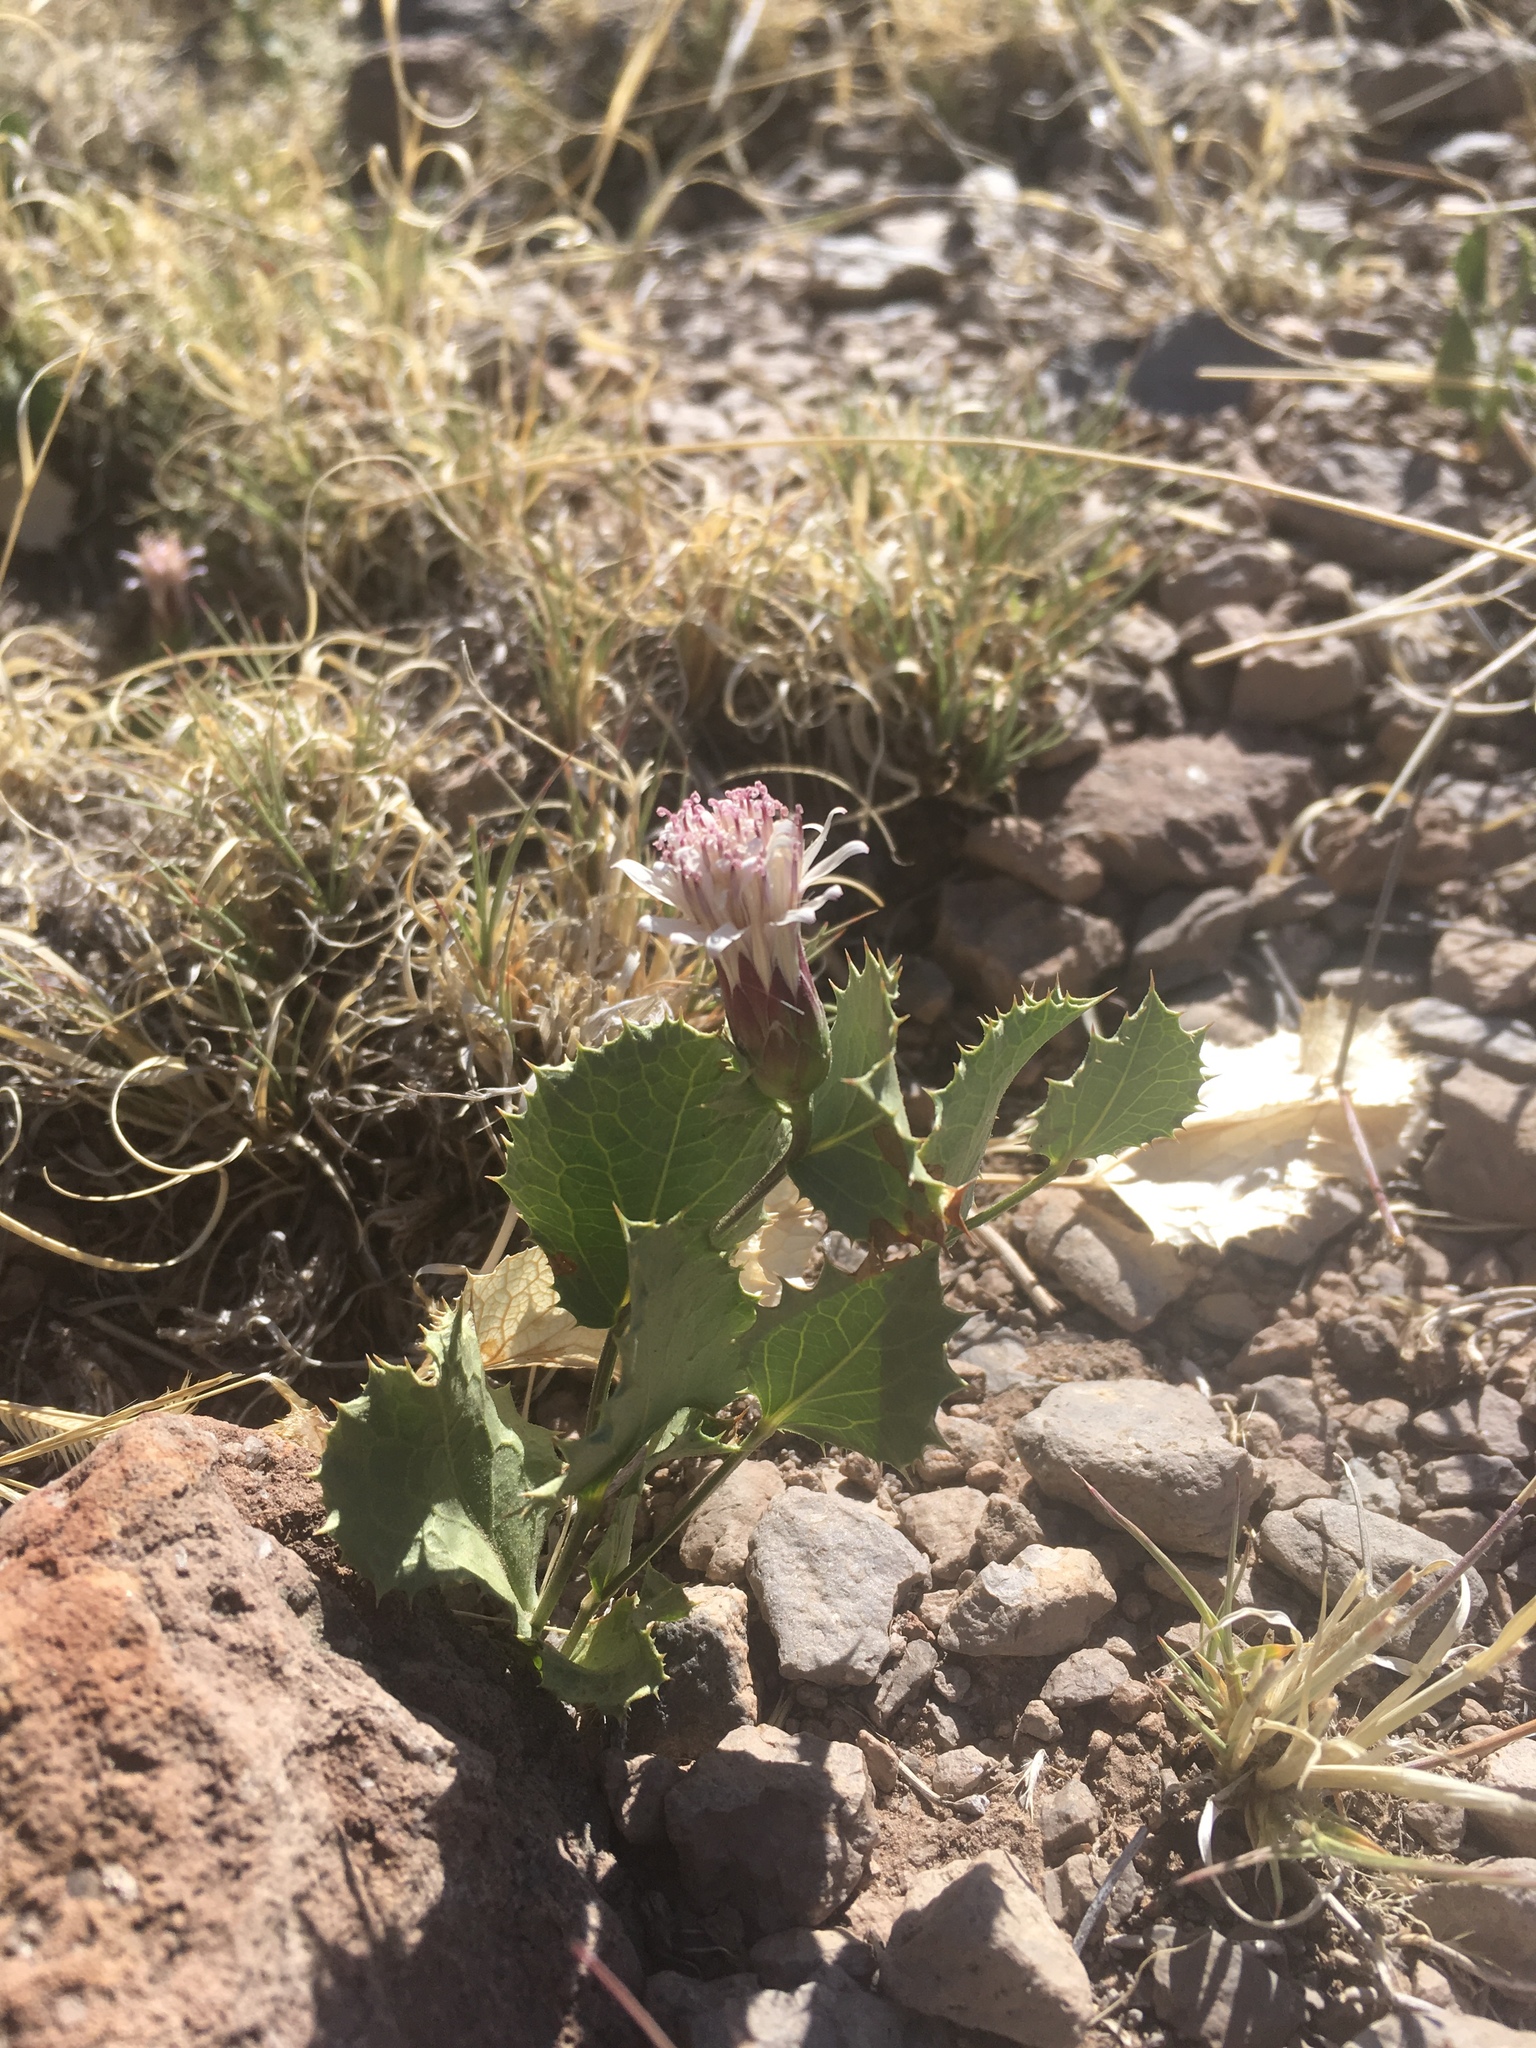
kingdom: Plantae
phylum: Tracheophyta
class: Magnoliopsida
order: Asterales
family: Asteraceae
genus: Acourtia
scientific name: Acourtia nana
